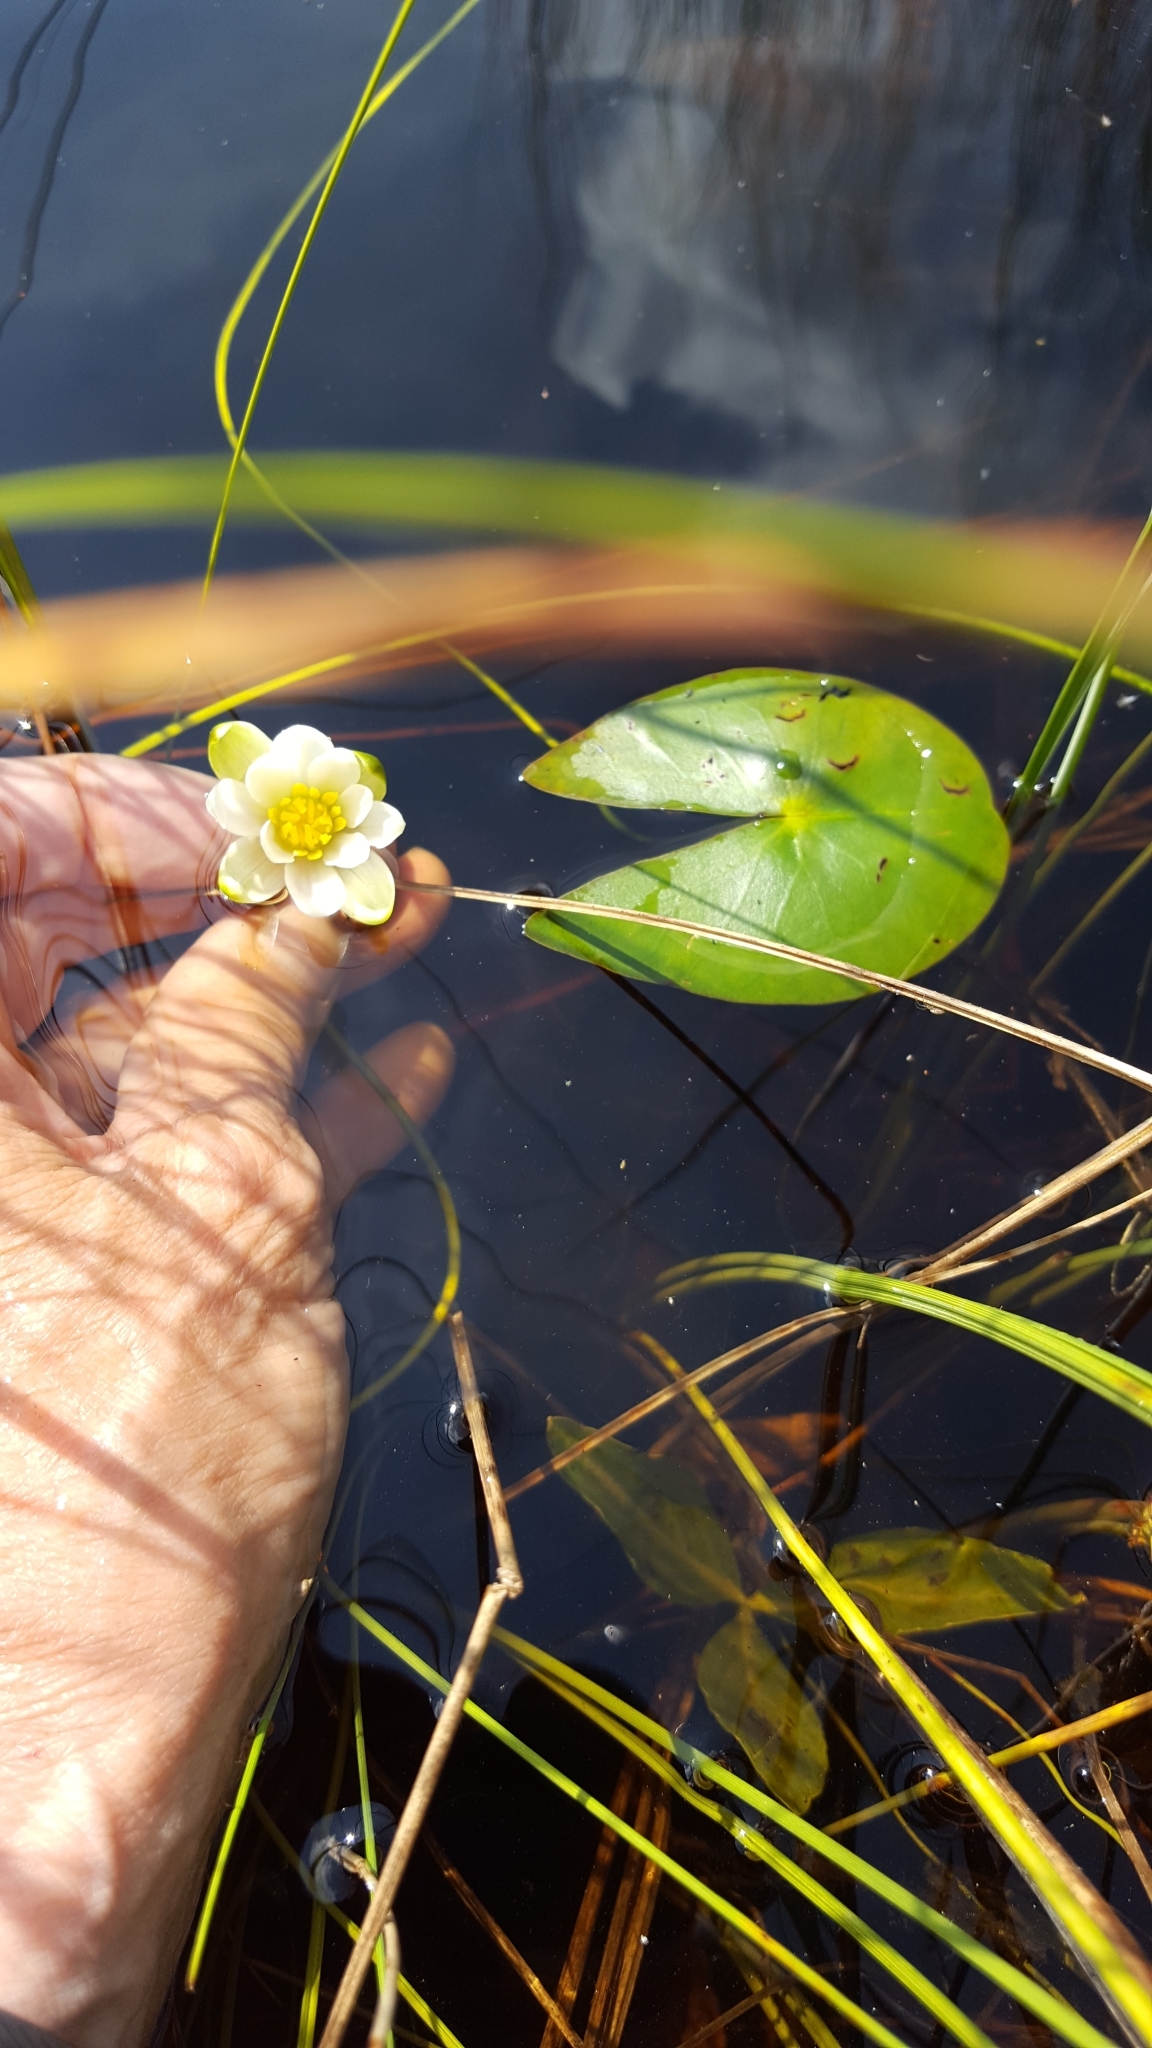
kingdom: Plantae
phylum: Tracheophyta
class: Magnoliopsida
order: Nymphaeales
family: Nymphaeaceae
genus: Nymphaea
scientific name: Nymphaea leibergii
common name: Dwarf water-lily
